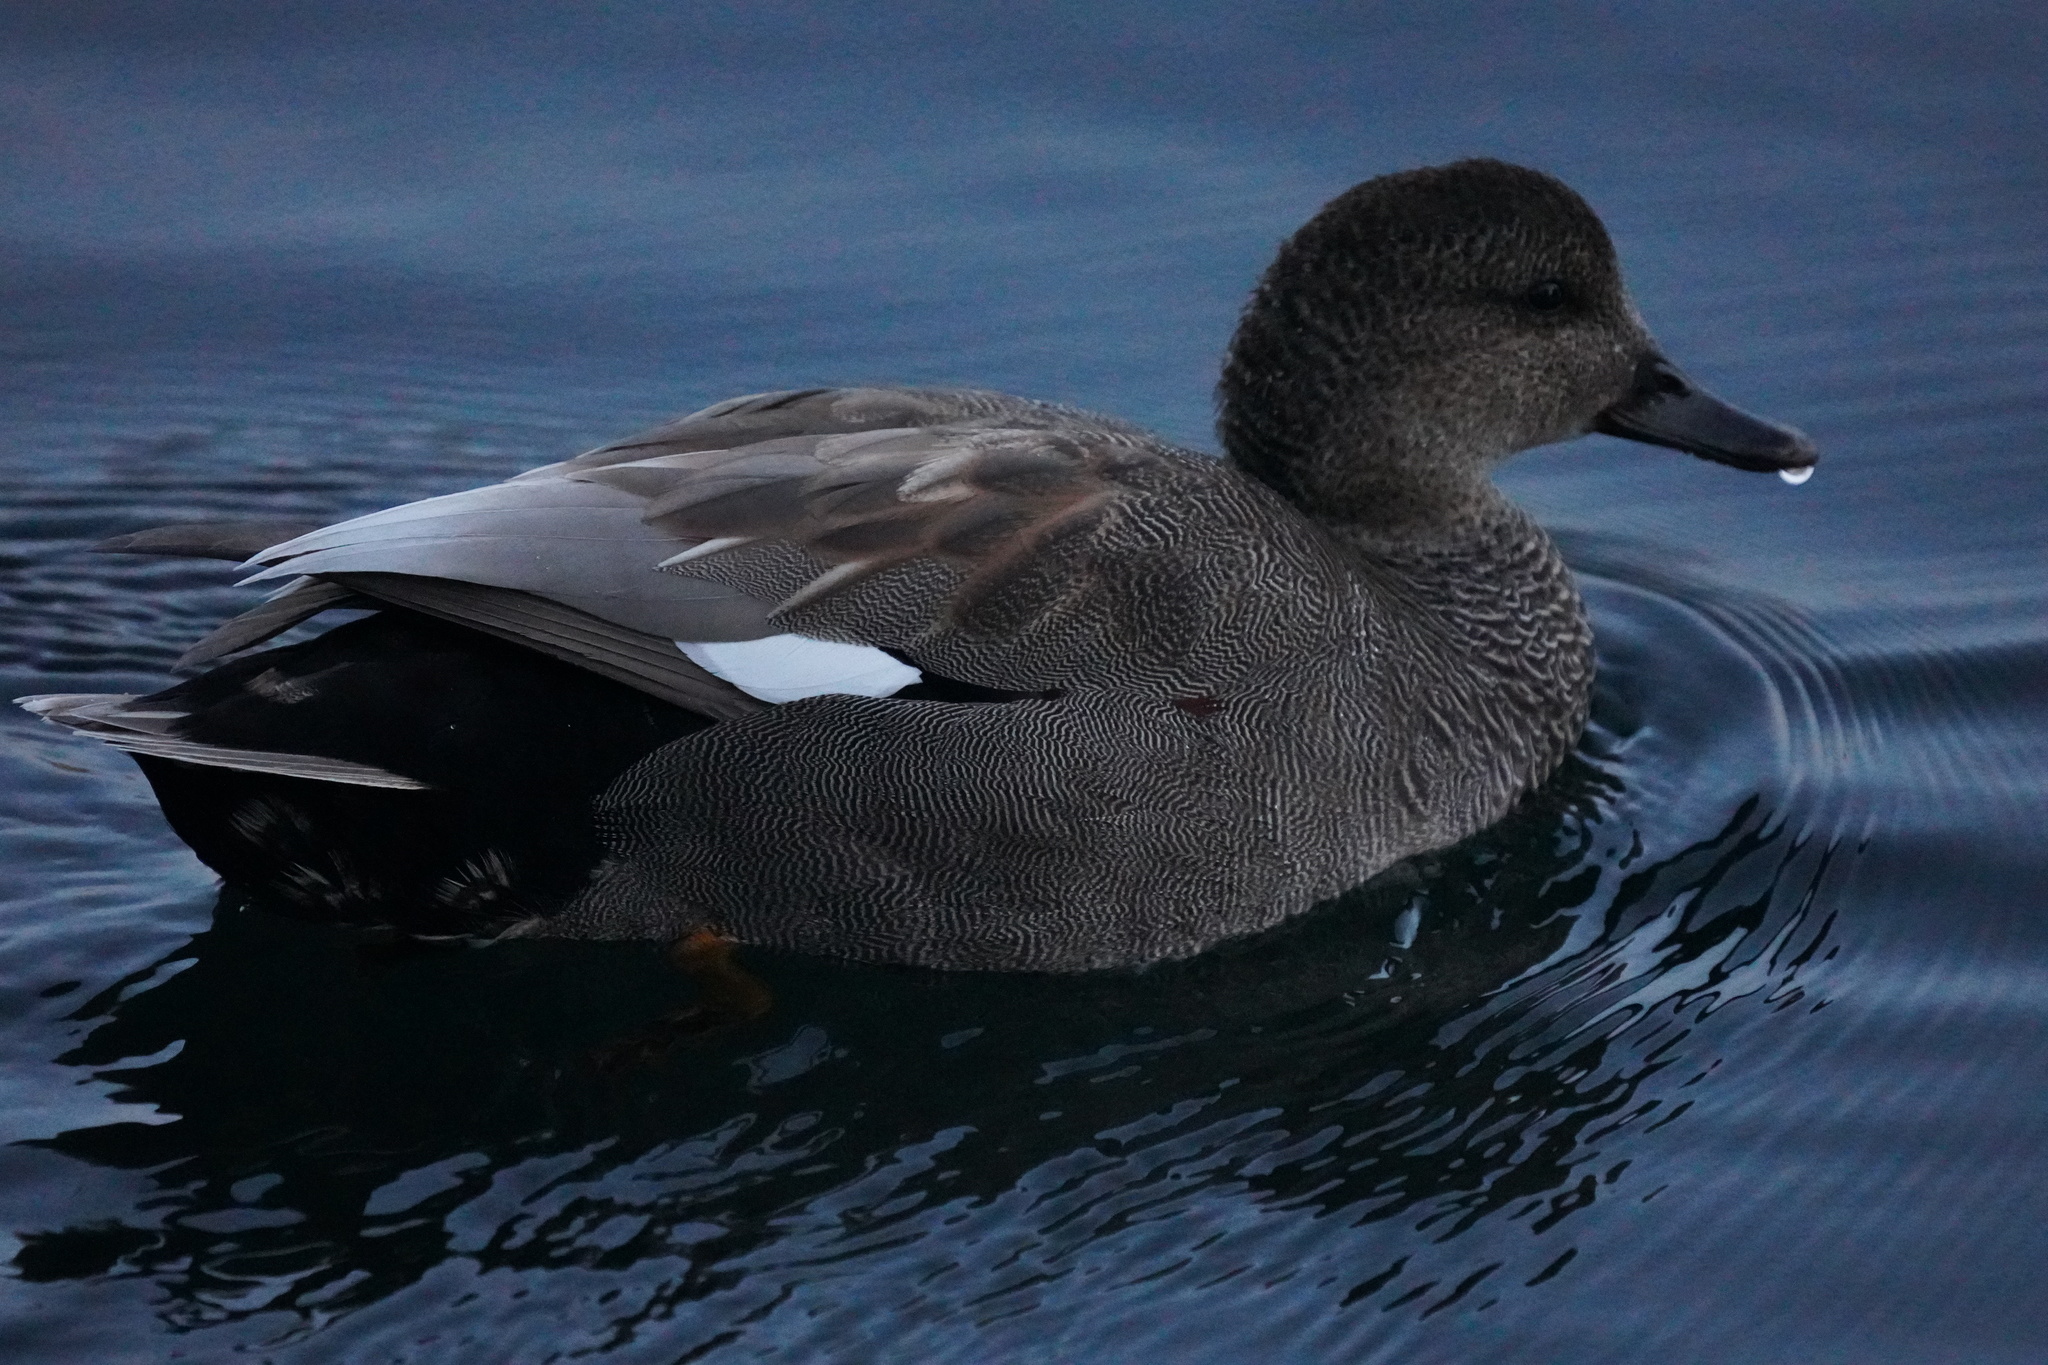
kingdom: Animalia
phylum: Chordata
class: Aves
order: Anseriformes
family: Anatidae
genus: Mareca
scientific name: Mareca strepera
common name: Gadwall
